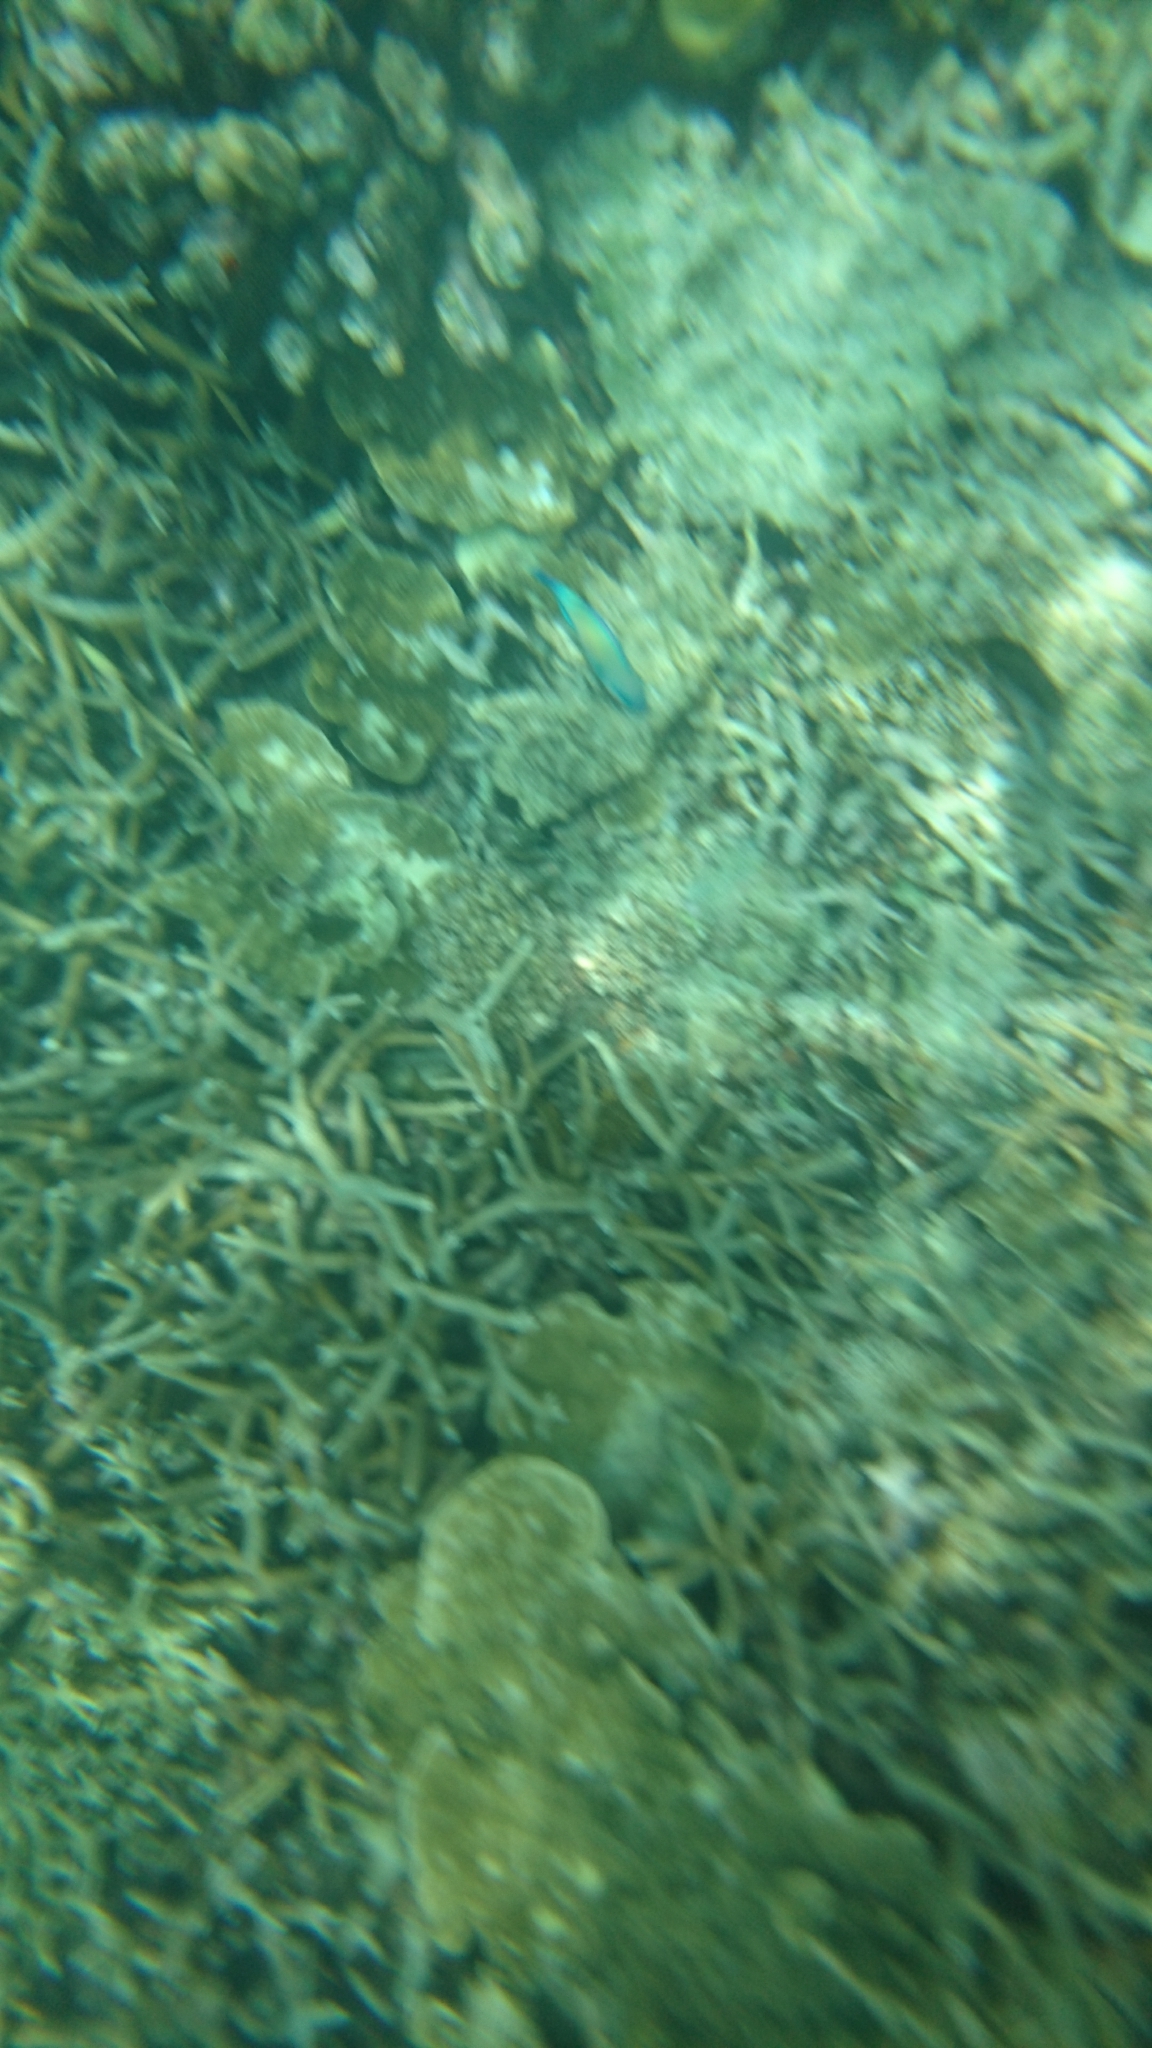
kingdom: Animalia
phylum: Chordata
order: Perciformes
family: Scaridae
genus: Chlorurus
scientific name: Chlorurus spilurus
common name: Bullethead parrotfish
